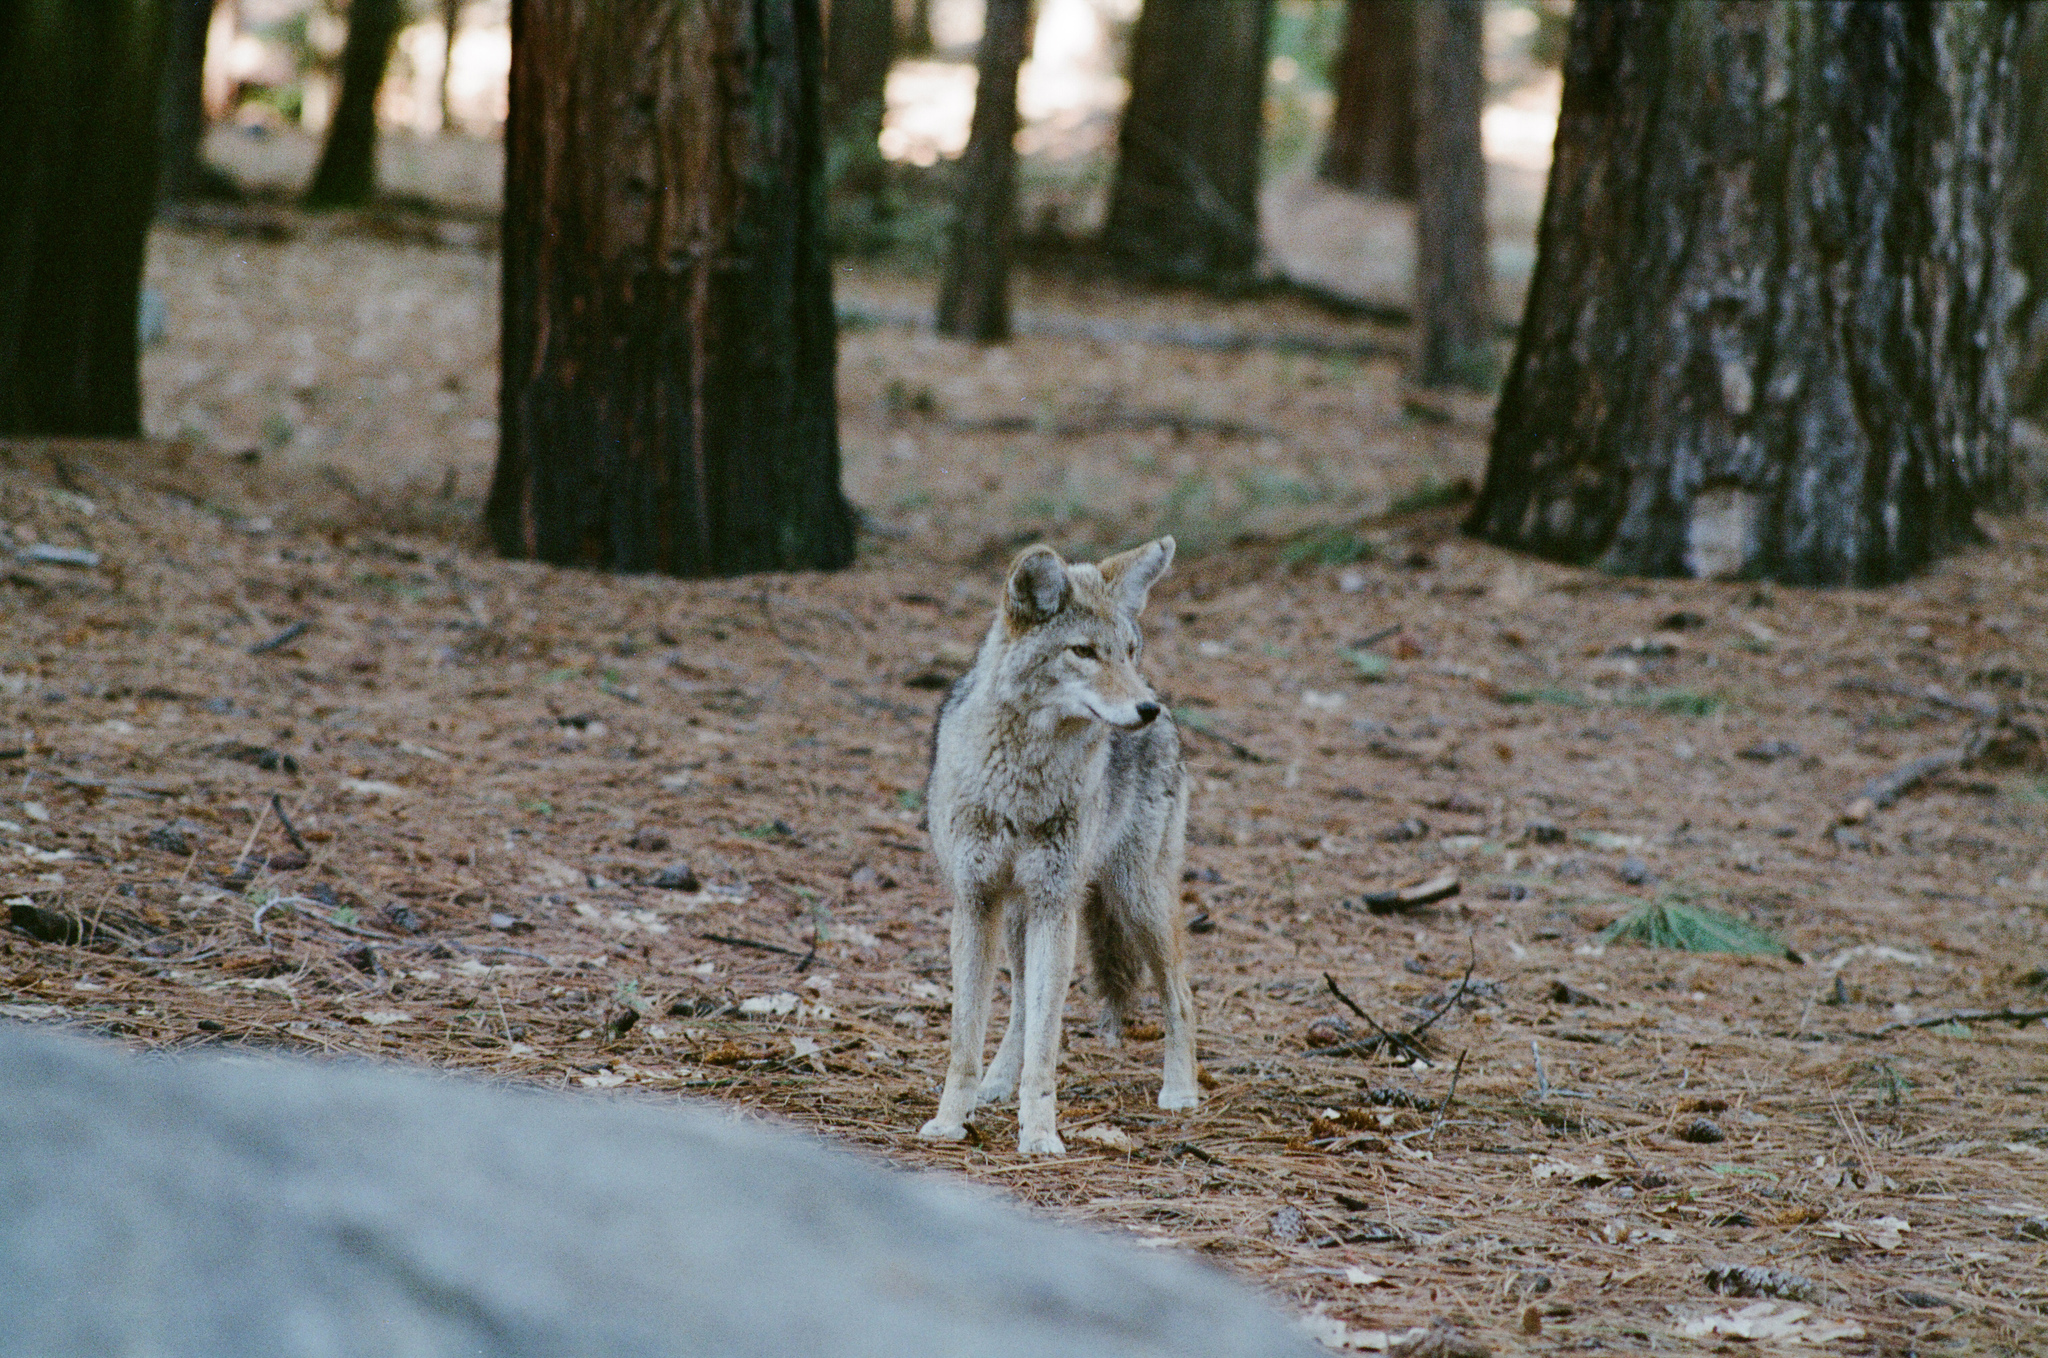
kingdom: Animalia
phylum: Chordata
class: Mammalia
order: Carnivora
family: Canidae
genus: Canis
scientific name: Canis latrans
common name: Coyote
